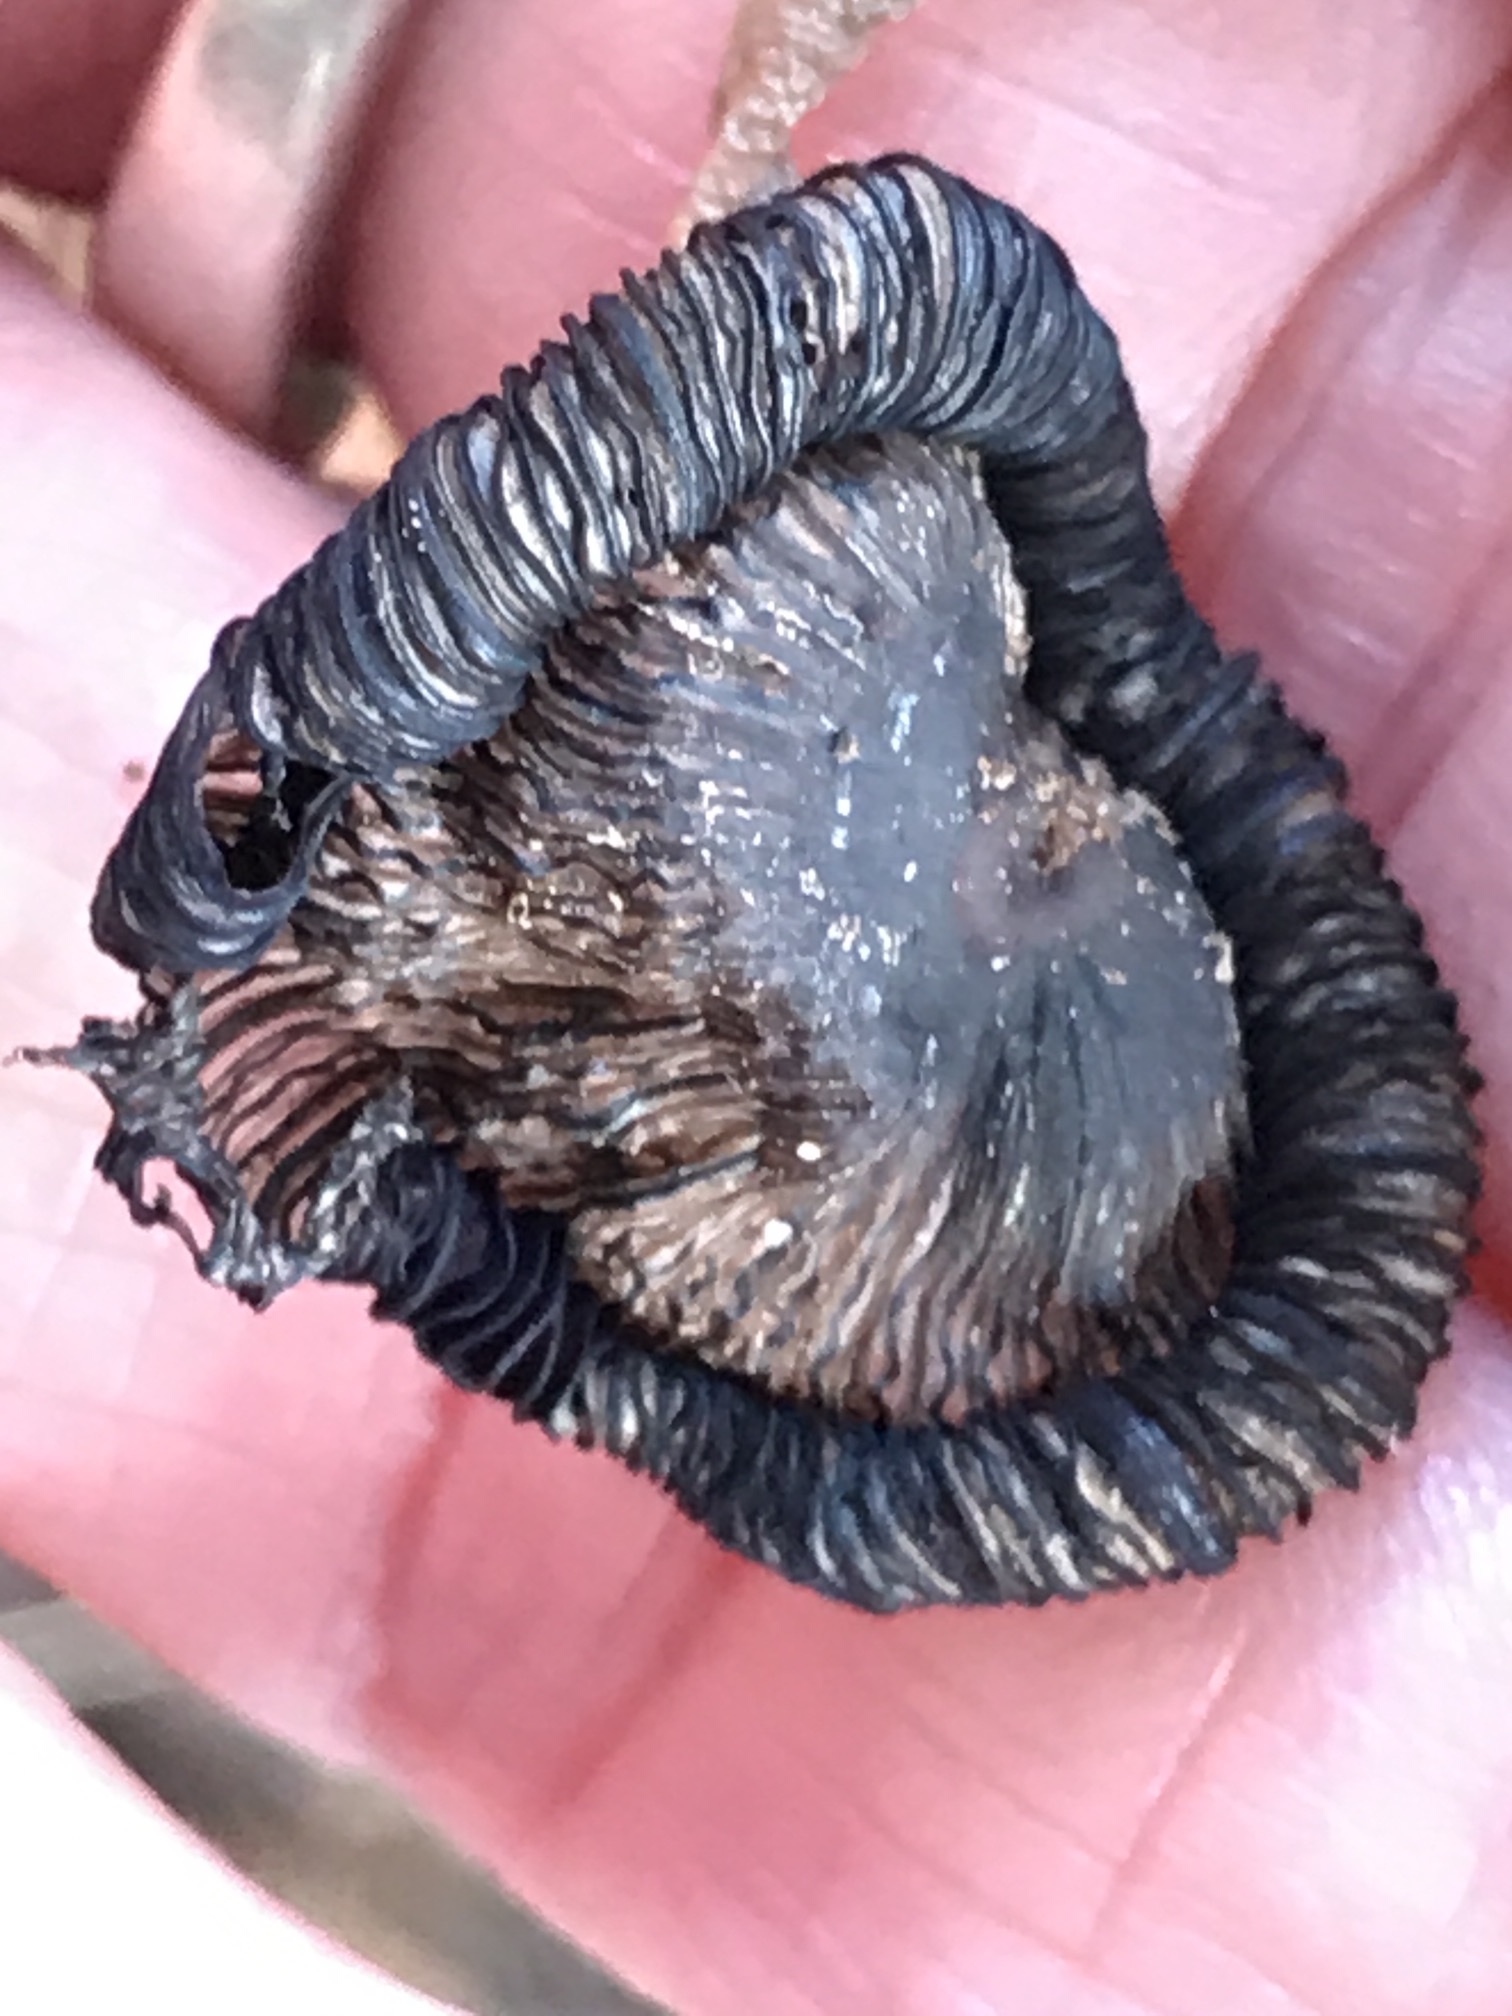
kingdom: Fungi
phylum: Basidiomycota
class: Agaricomycetes
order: Agaricales
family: Psathyrellaceae
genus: Coprinopsis
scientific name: Coprinopsis lagopus
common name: Hare'sfoot inkcap
